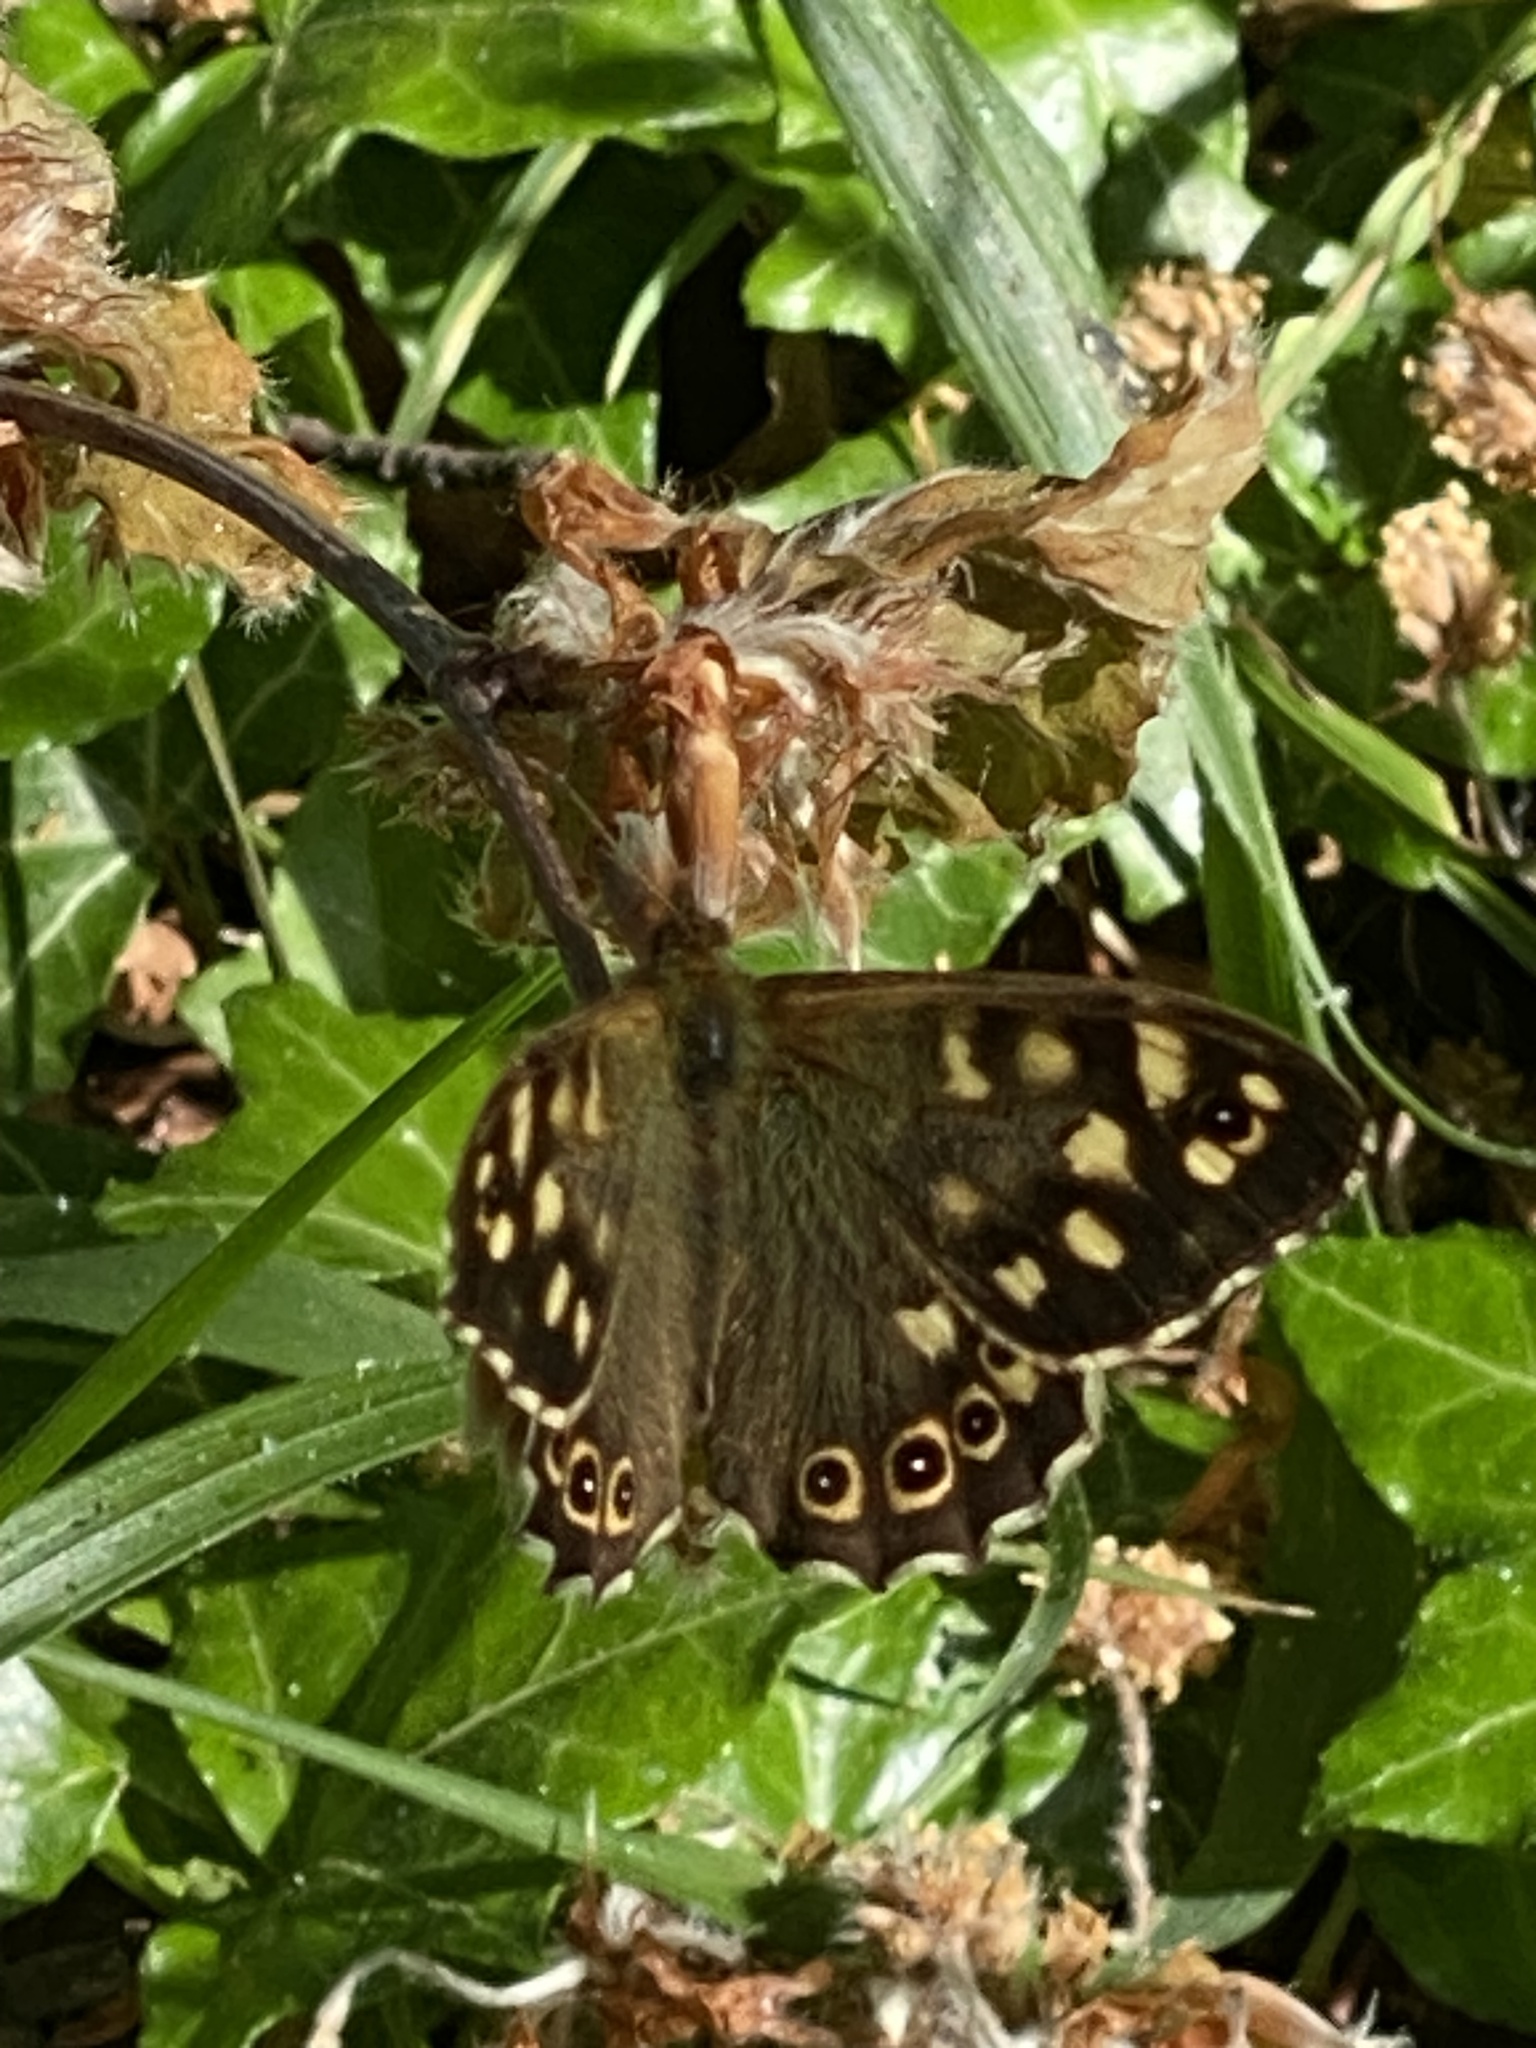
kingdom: Animalia
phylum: Arthropoda
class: Insecta
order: Lepidoptera
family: Nymphalidae
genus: Pararge
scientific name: Pararge aegeria
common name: Speckled wood
